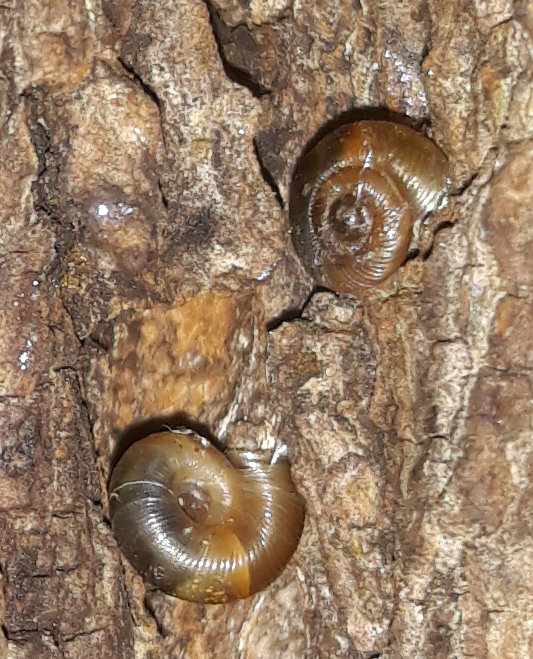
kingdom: Animalia
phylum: Mollusca
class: Gastropoda
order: Stylommatophora
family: Discidae
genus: Discus
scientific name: Discus ruderatus
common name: Brown disc snail
